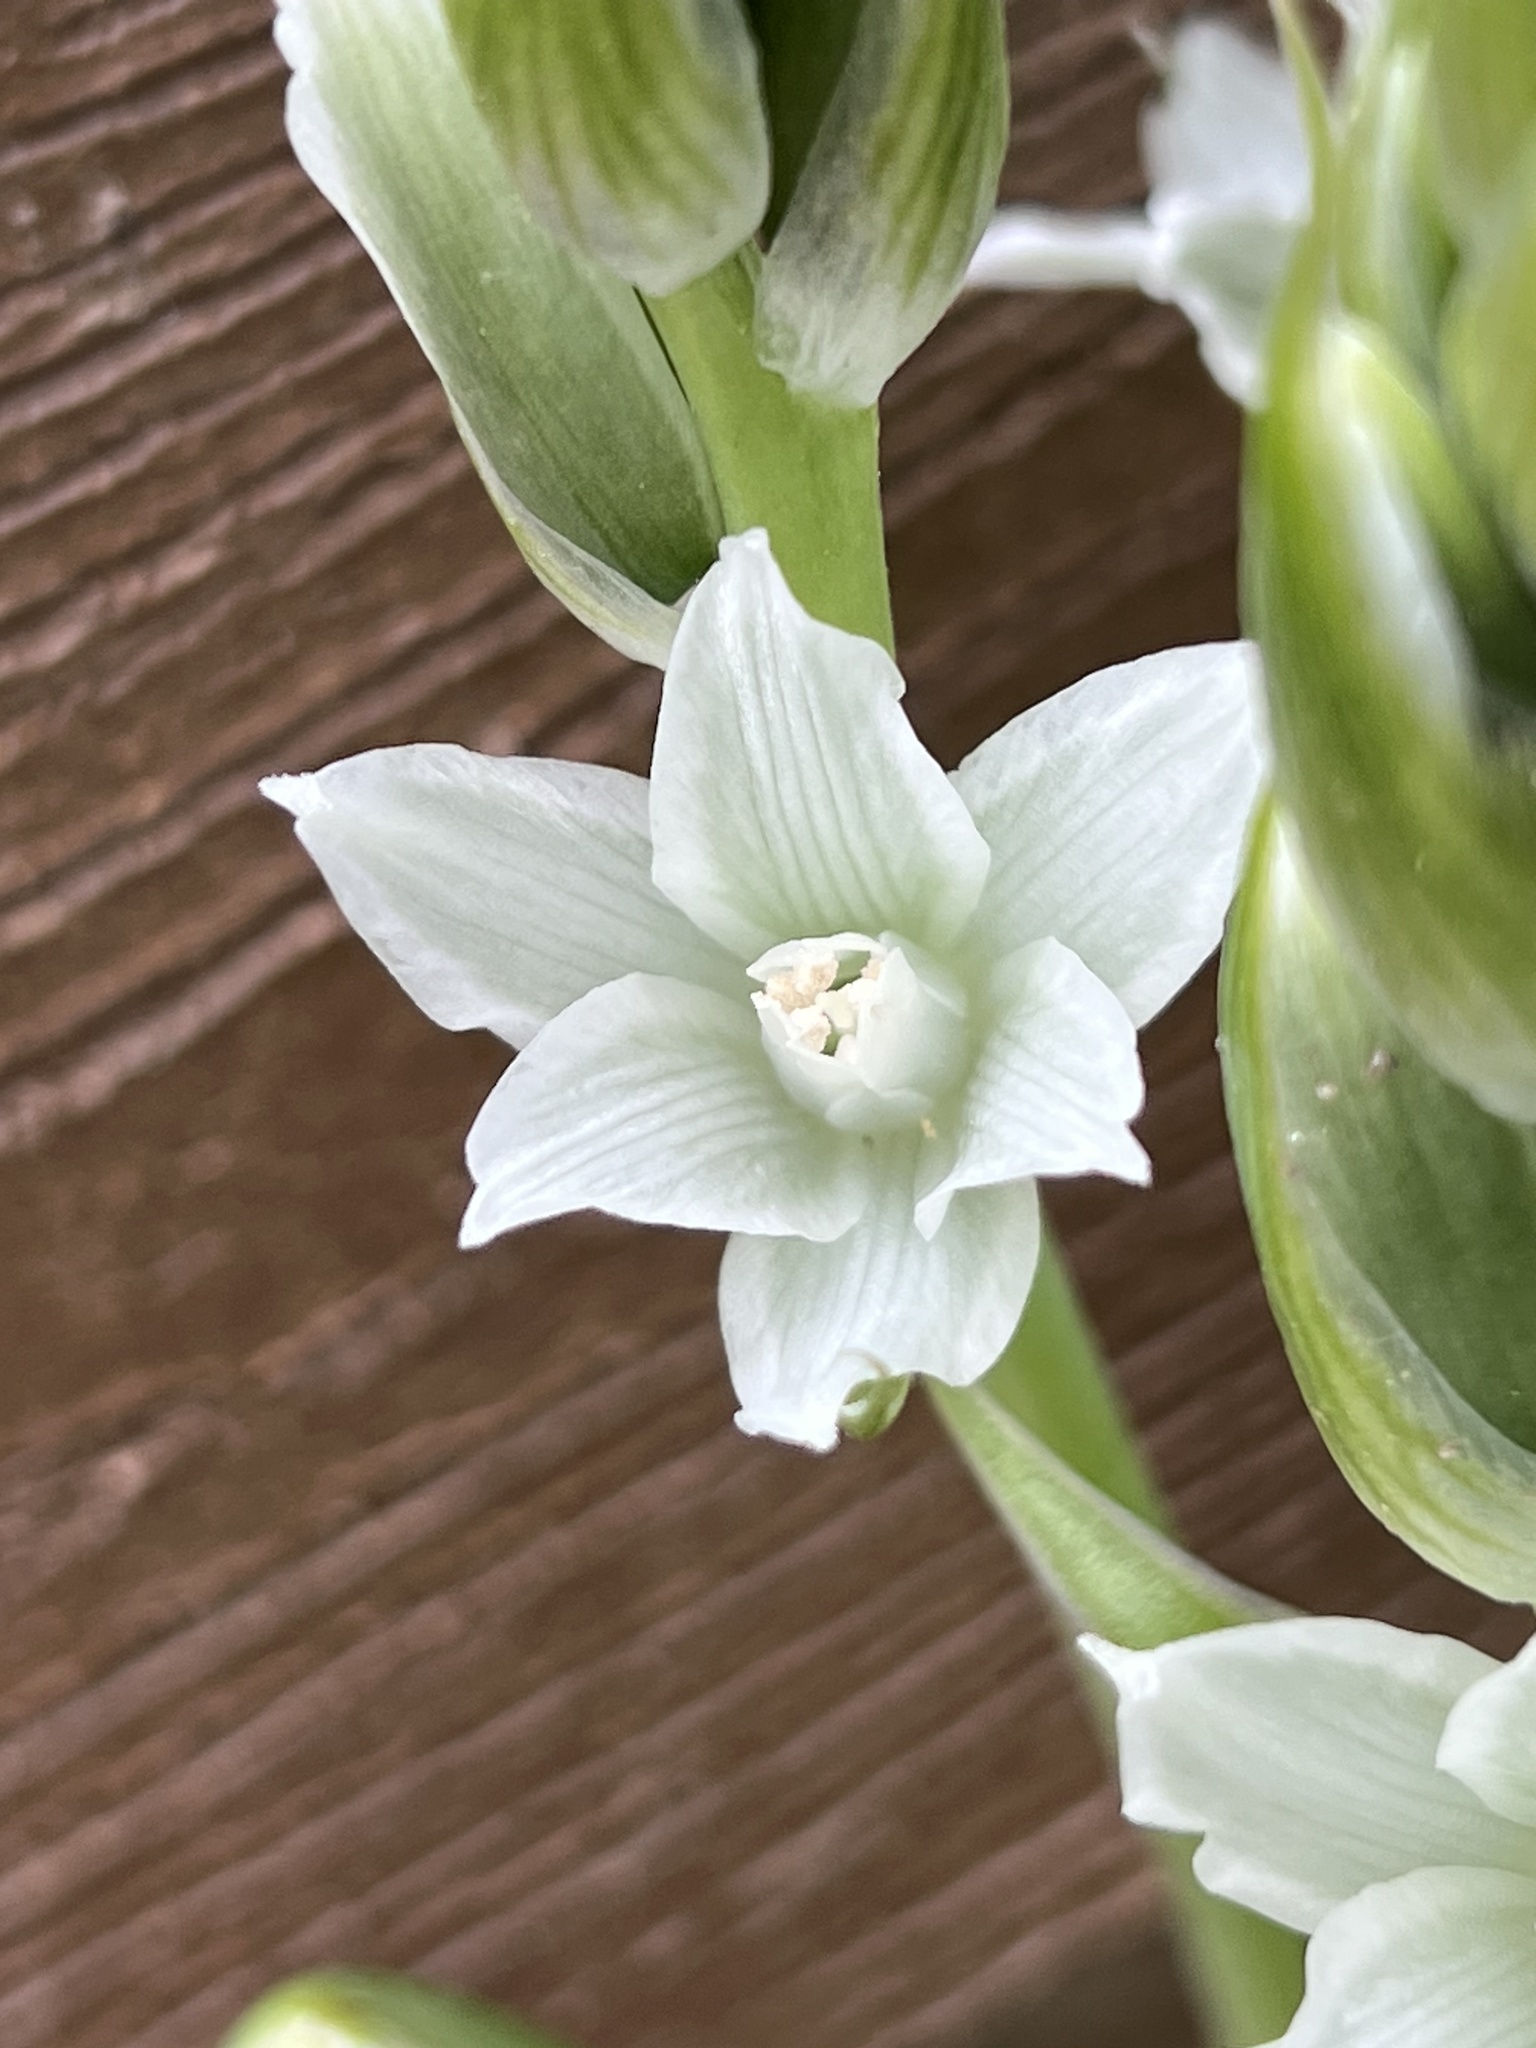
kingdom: Plantae
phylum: Tracheophyta
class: Liliopsida
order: Asparagales
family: Asparagaceae
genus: Ornithogalum
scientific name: Ornithogalum nutans
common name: Drooping star-of-bethlehem
